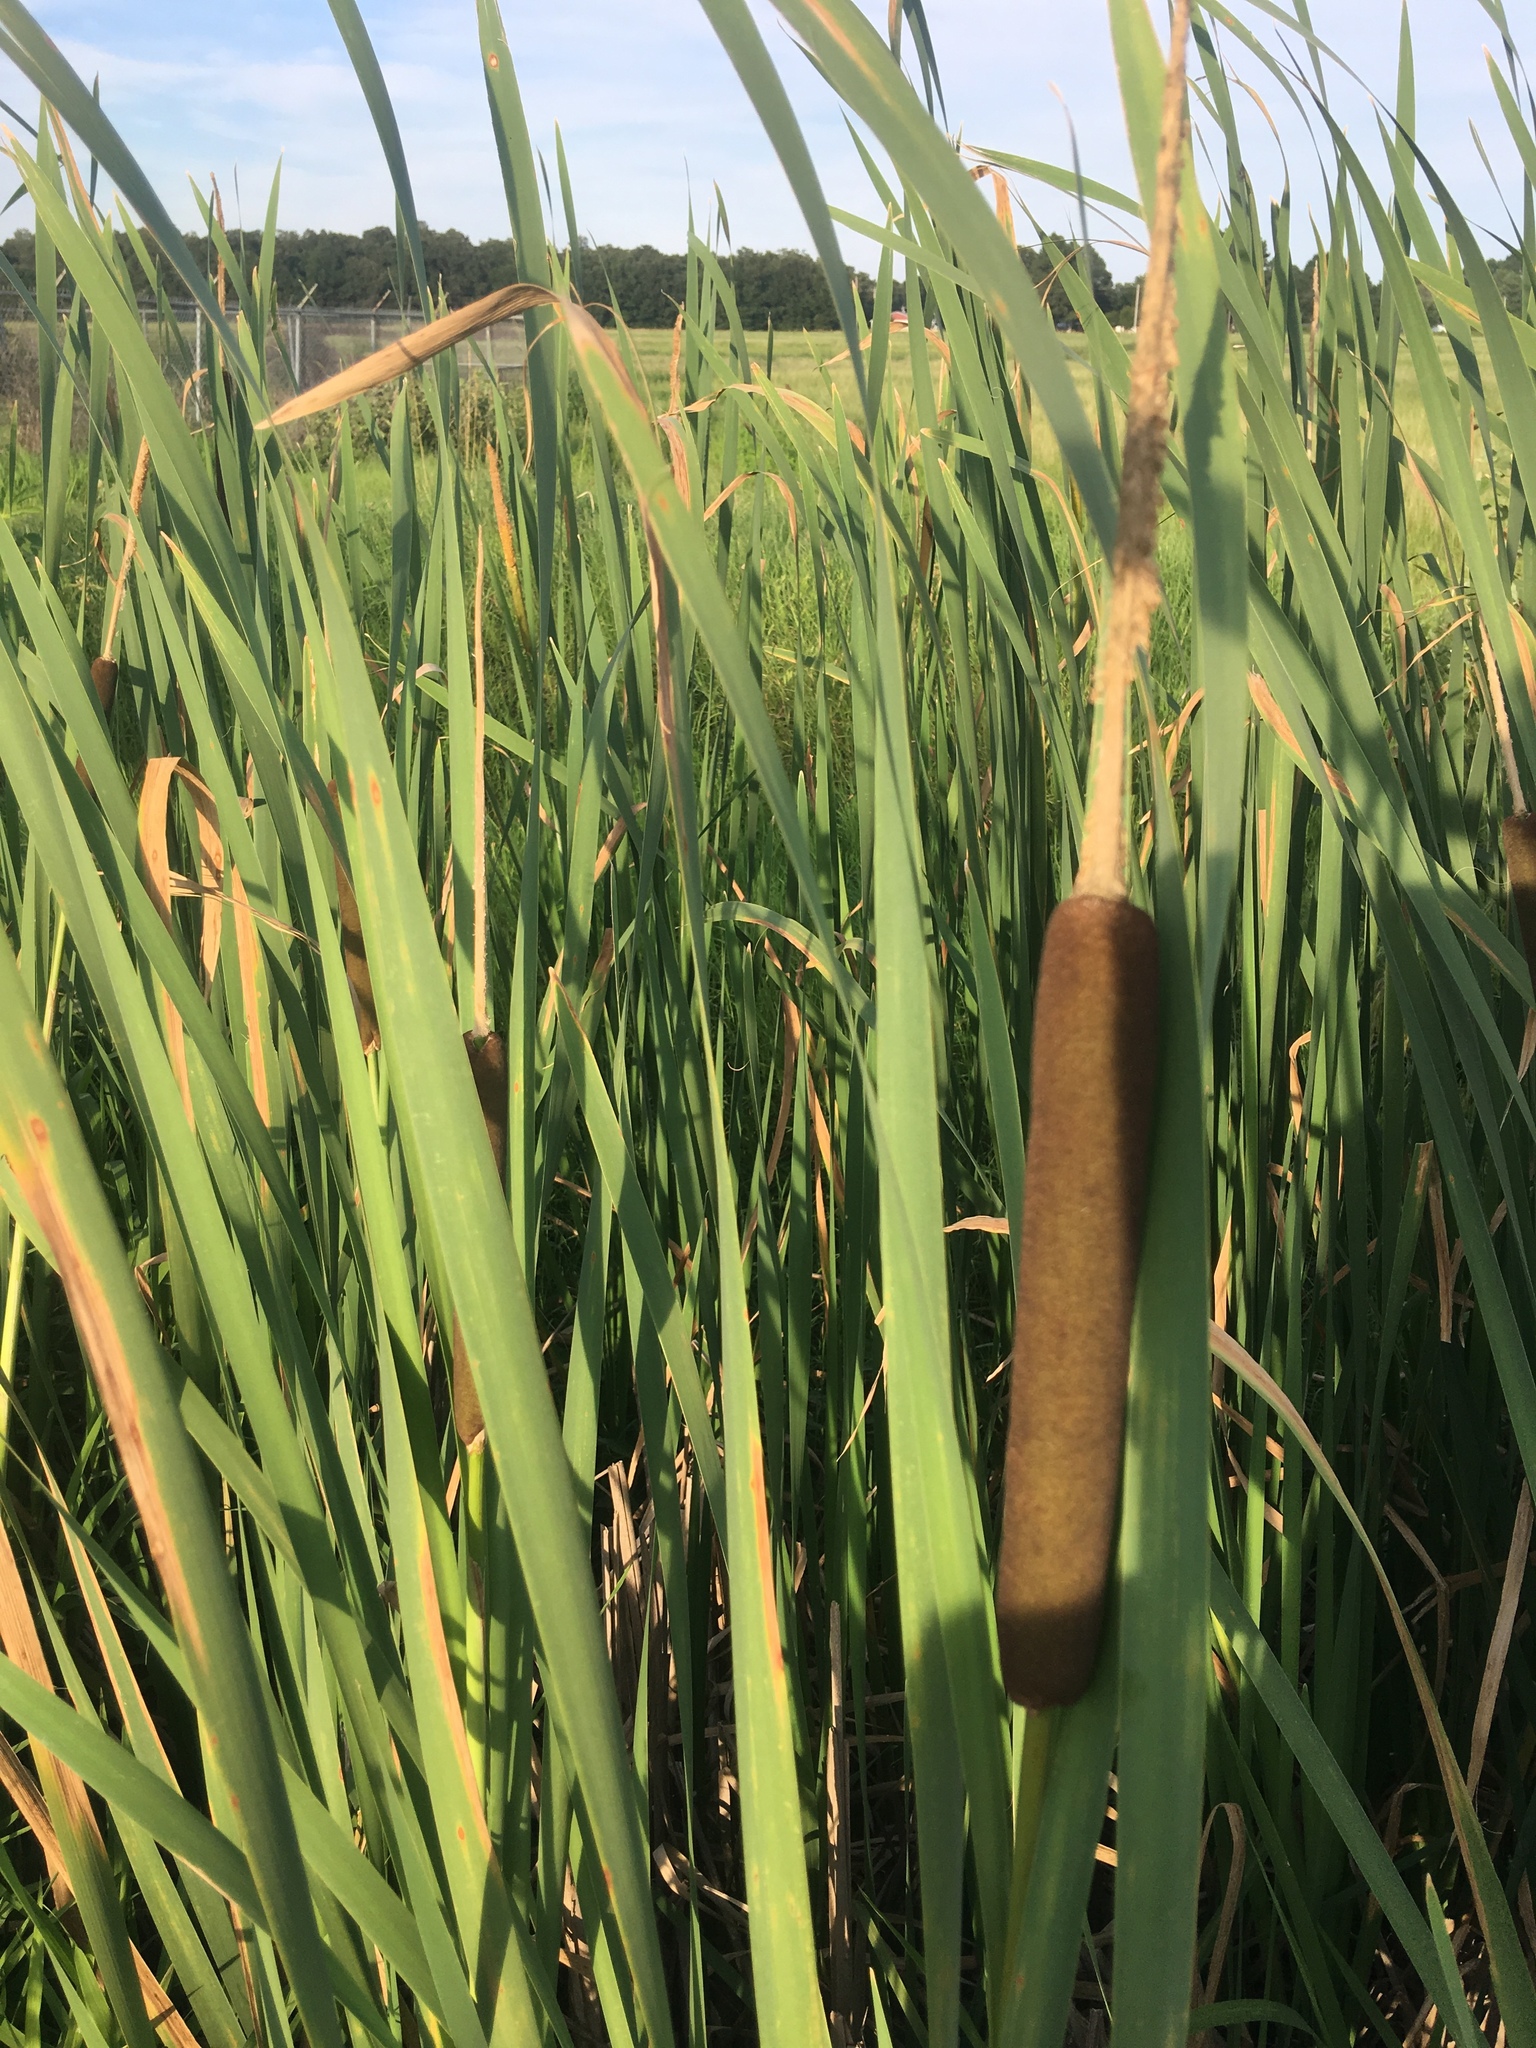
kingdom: Plantae
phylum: Tracheophyta
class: Liliopsida
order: Poales
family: Typhaceae
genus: Typha
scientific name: Typha latifolia
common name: Broadleaf cattail
